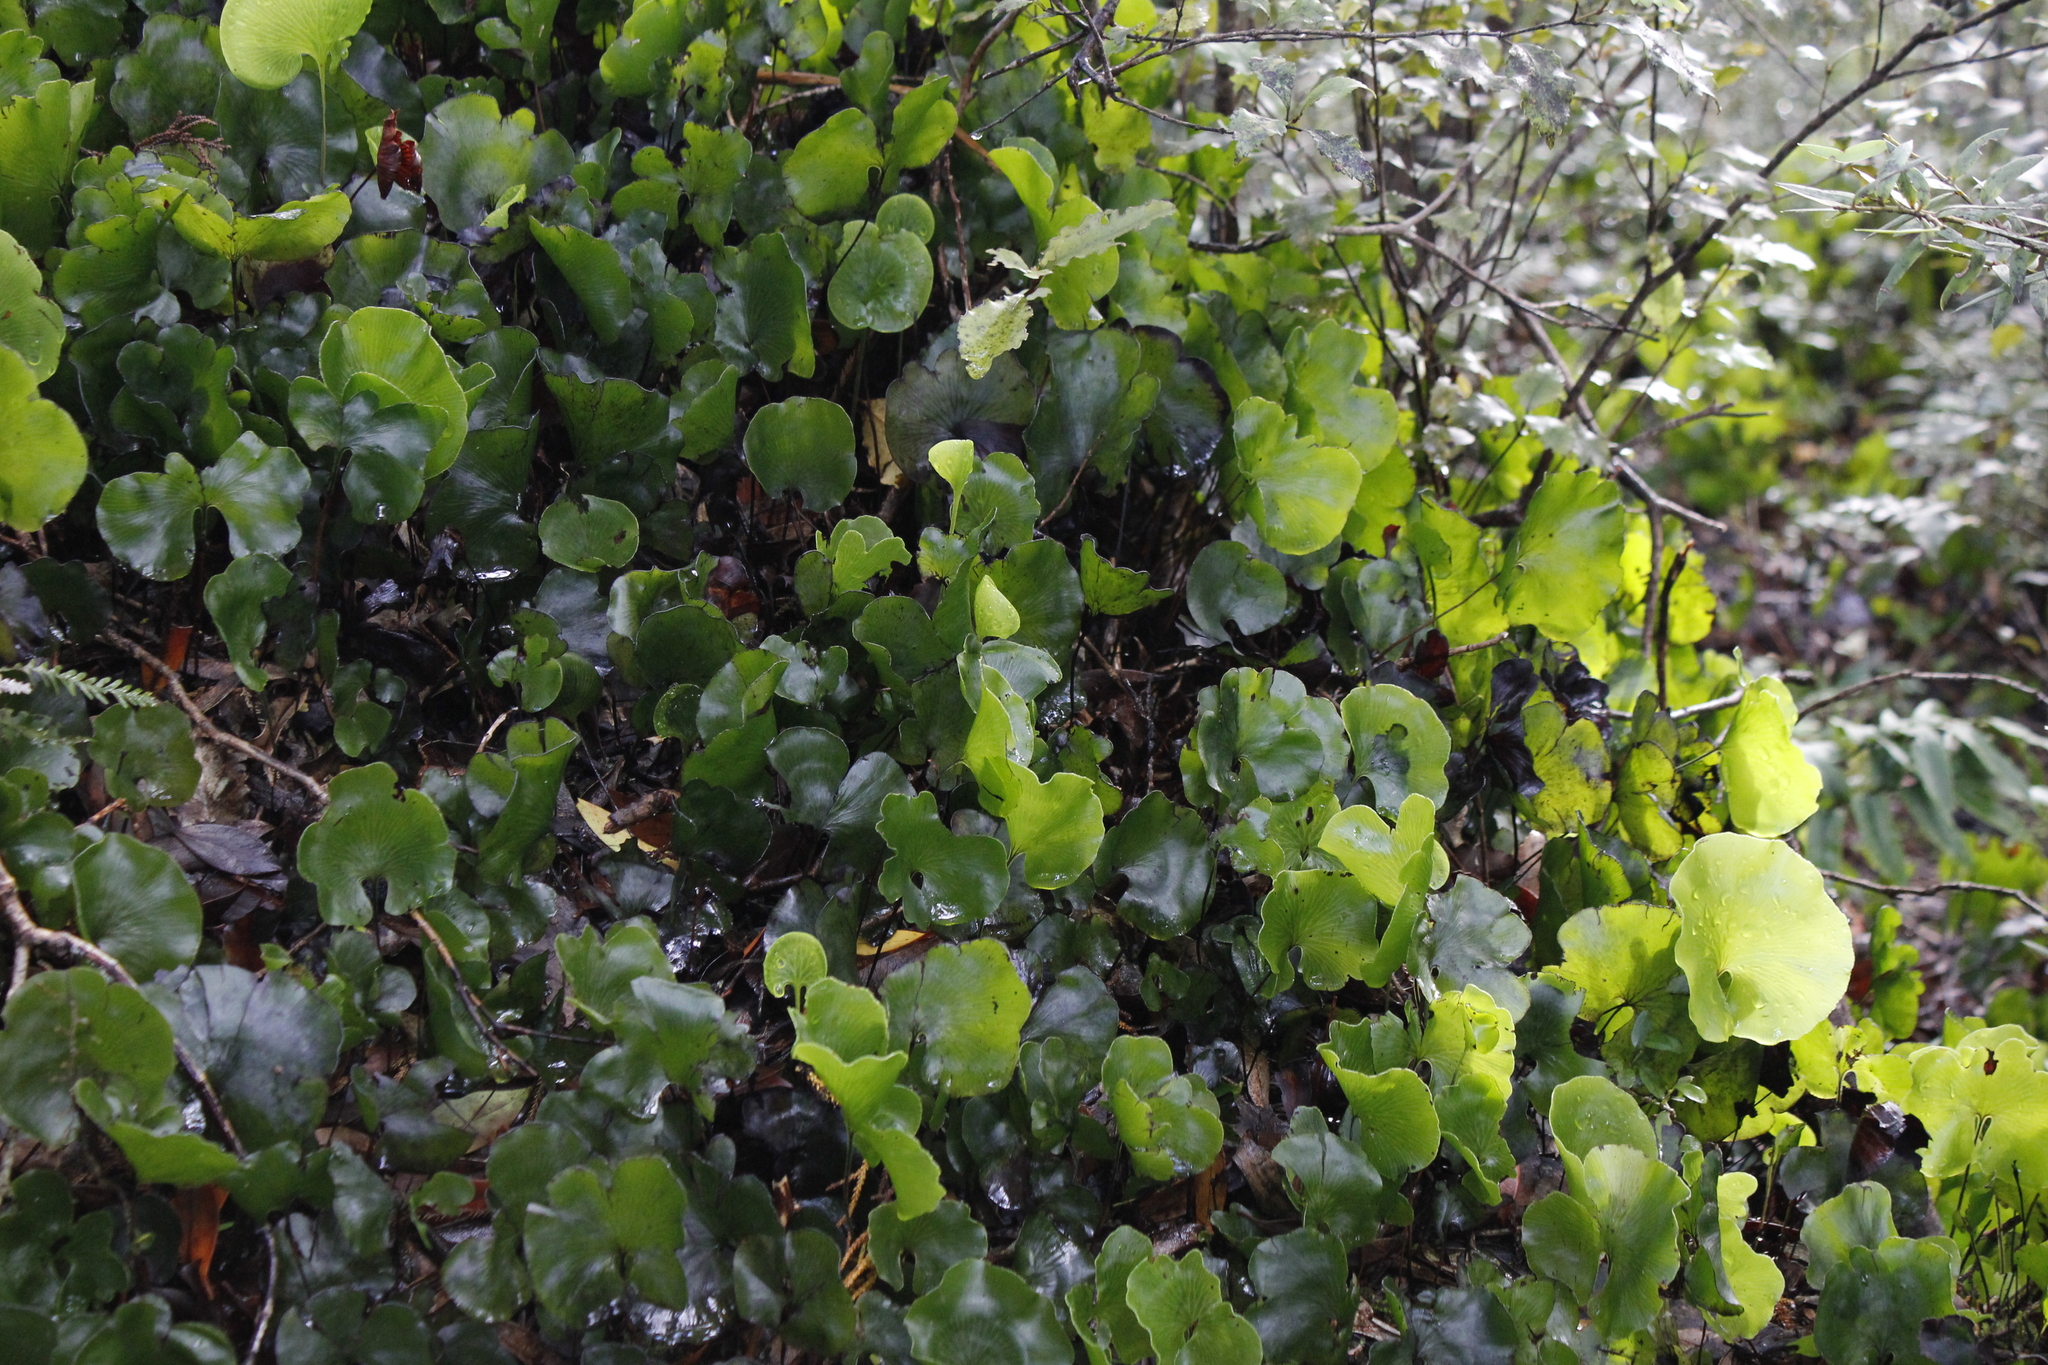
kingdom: Plantae
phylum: Tracheophyta
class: Polypodiopsida
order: Hymenophyllales
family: Hymenophyllaceae
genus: Hymenophyllum
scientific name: Hymenophyllum nephrophyllum
